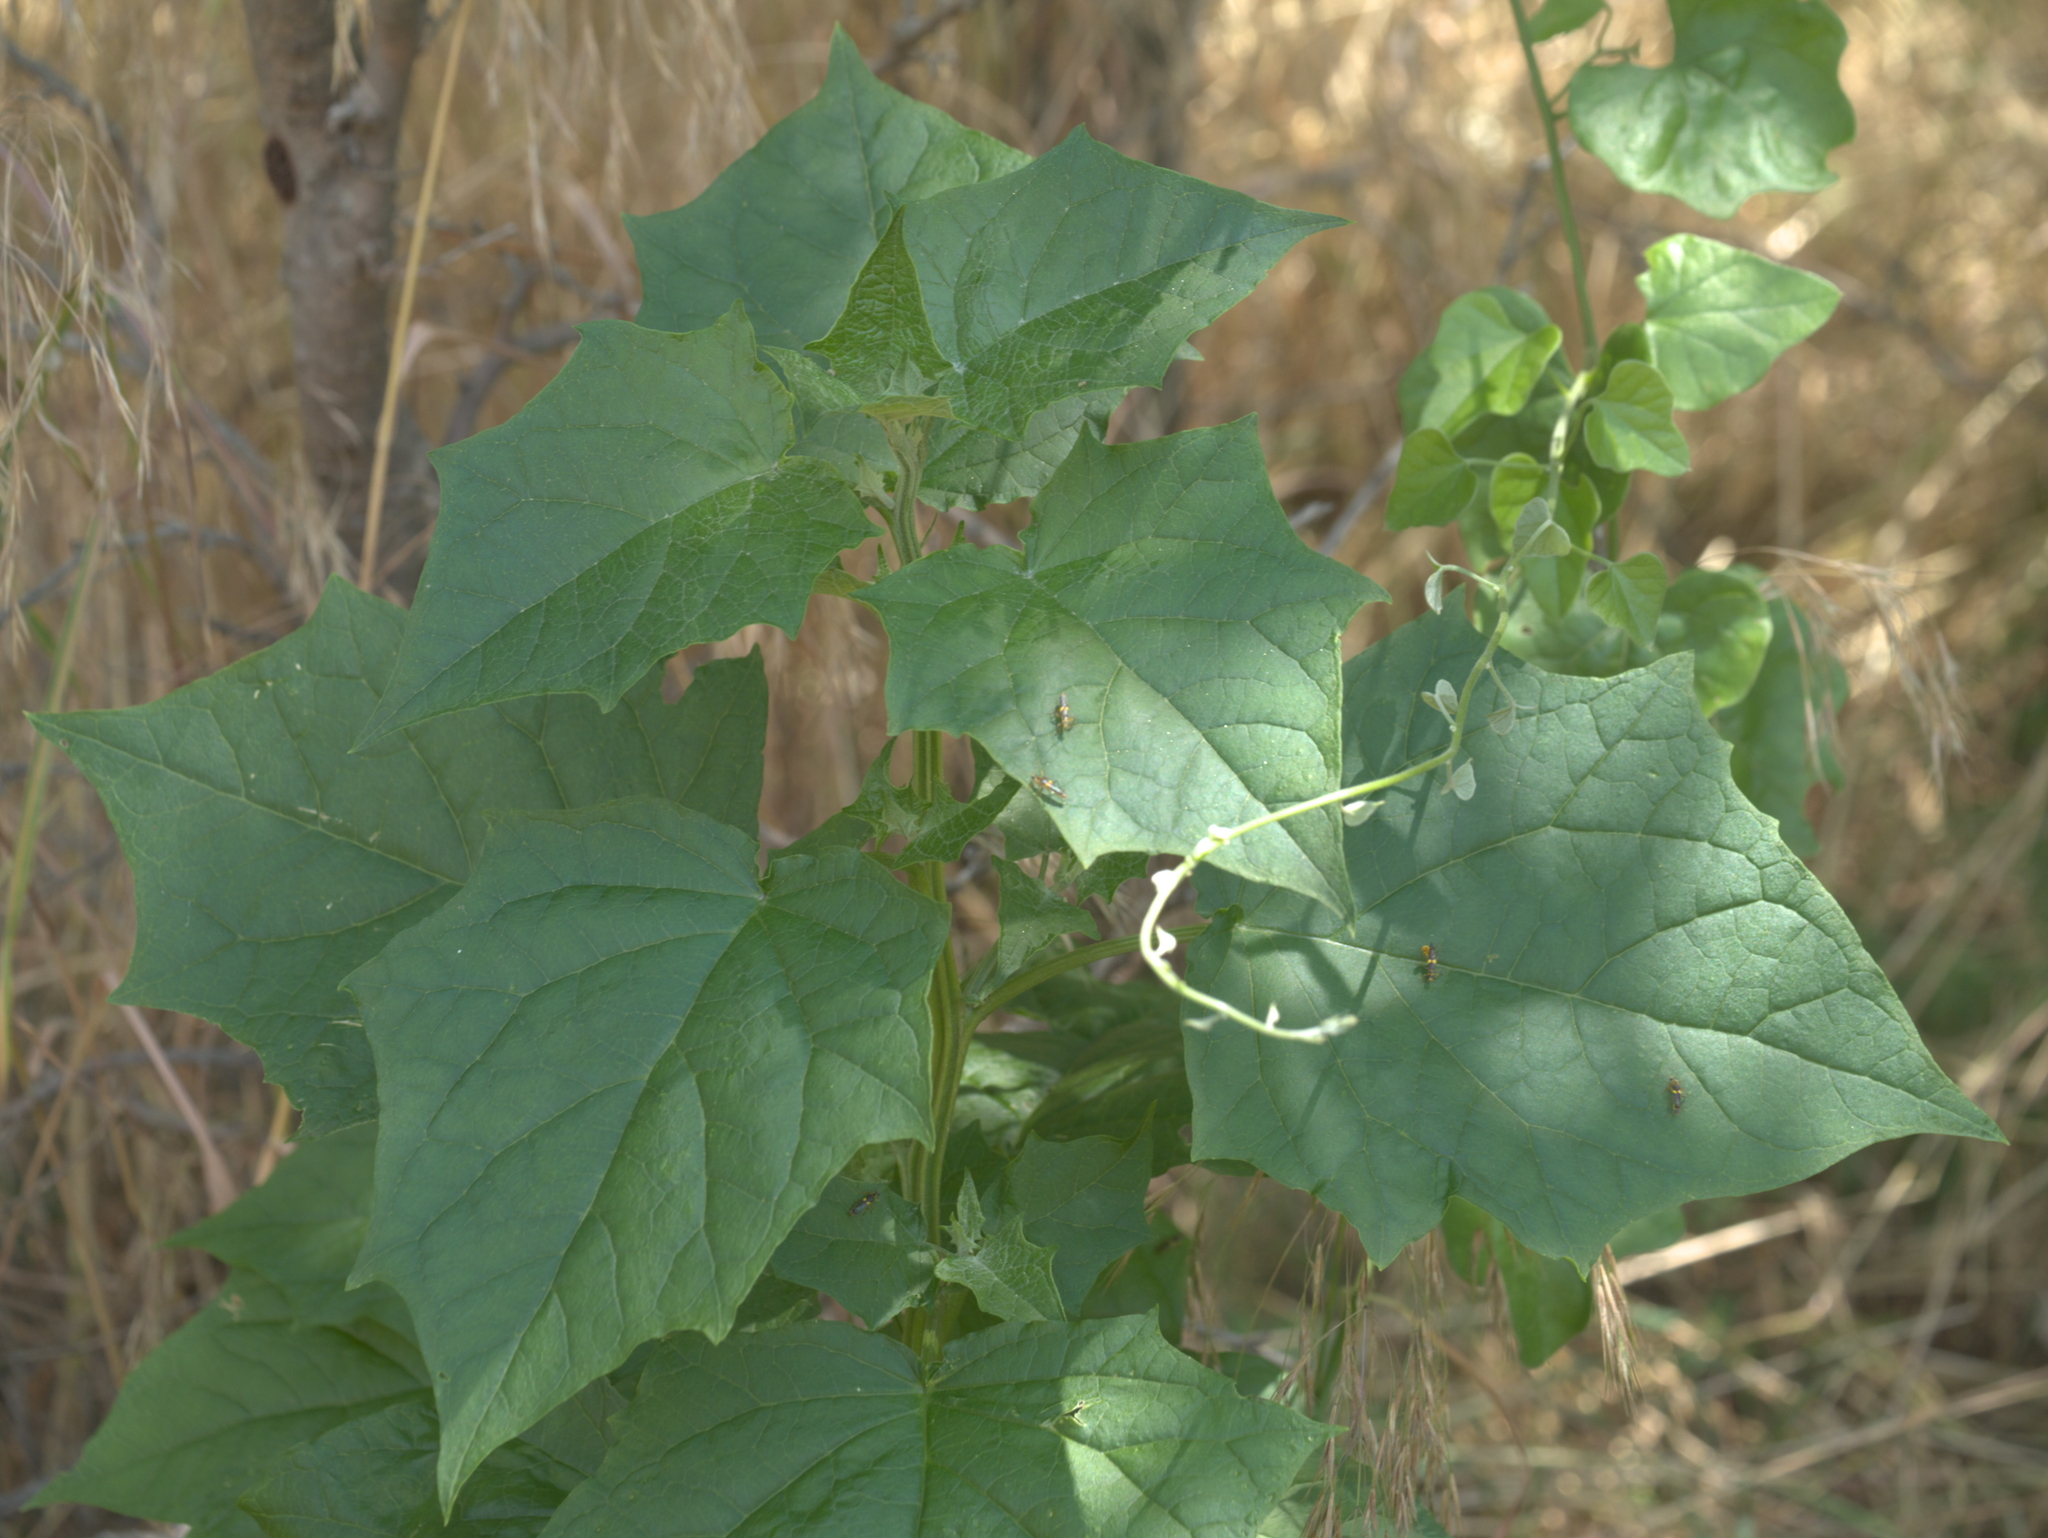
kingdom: Plantae
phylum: Tracheophyta
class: Magnoliopsida
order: Caryophyllales
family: Amaranthaceae
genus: Chenopodiastrum
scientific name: Chenopodiastrum simplex
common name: Large-seed goosefoot
